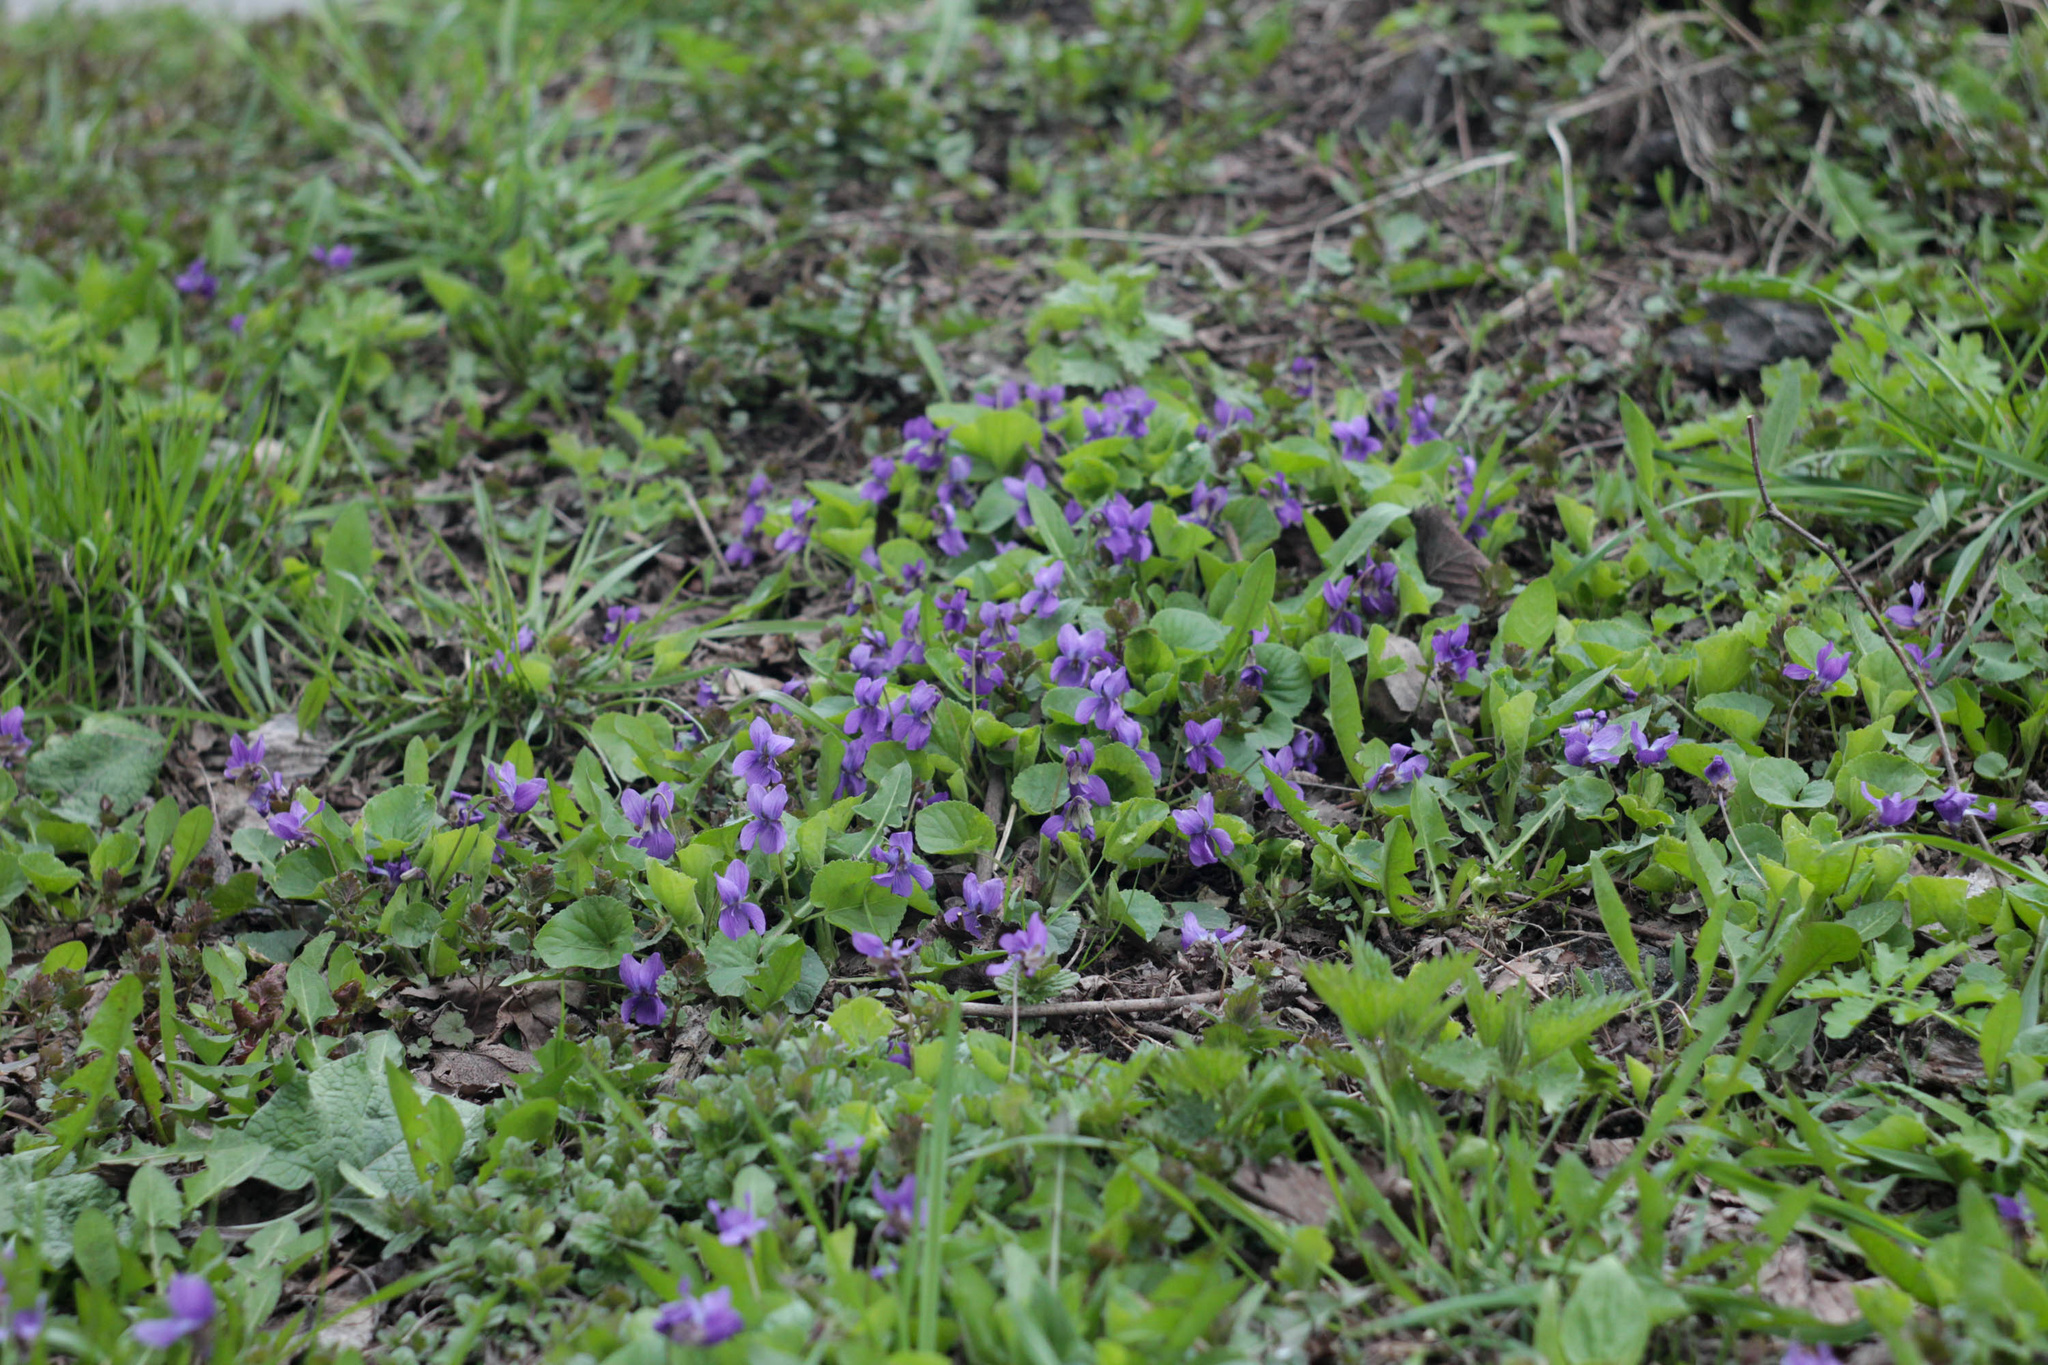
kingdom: Plantae
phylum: Tracheophyta
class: Magnoliopsida
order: Malpighiales
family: Violaceae
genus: Viola
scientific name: Viola odorata
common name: Sweet violet
